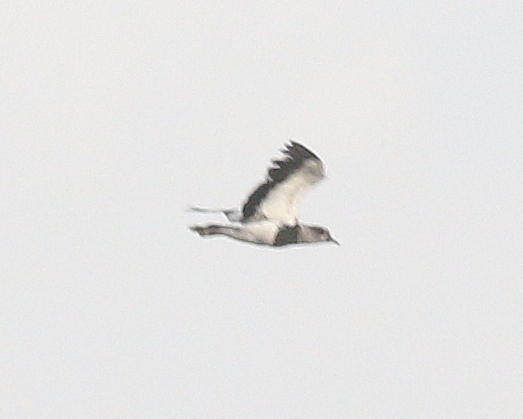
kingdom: Animalia
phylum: Chordata
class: Aves
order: Charadriiformes
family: Charadriidae
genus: Vanellus
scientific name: Vanellus chilensis
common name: Southern lapwing
